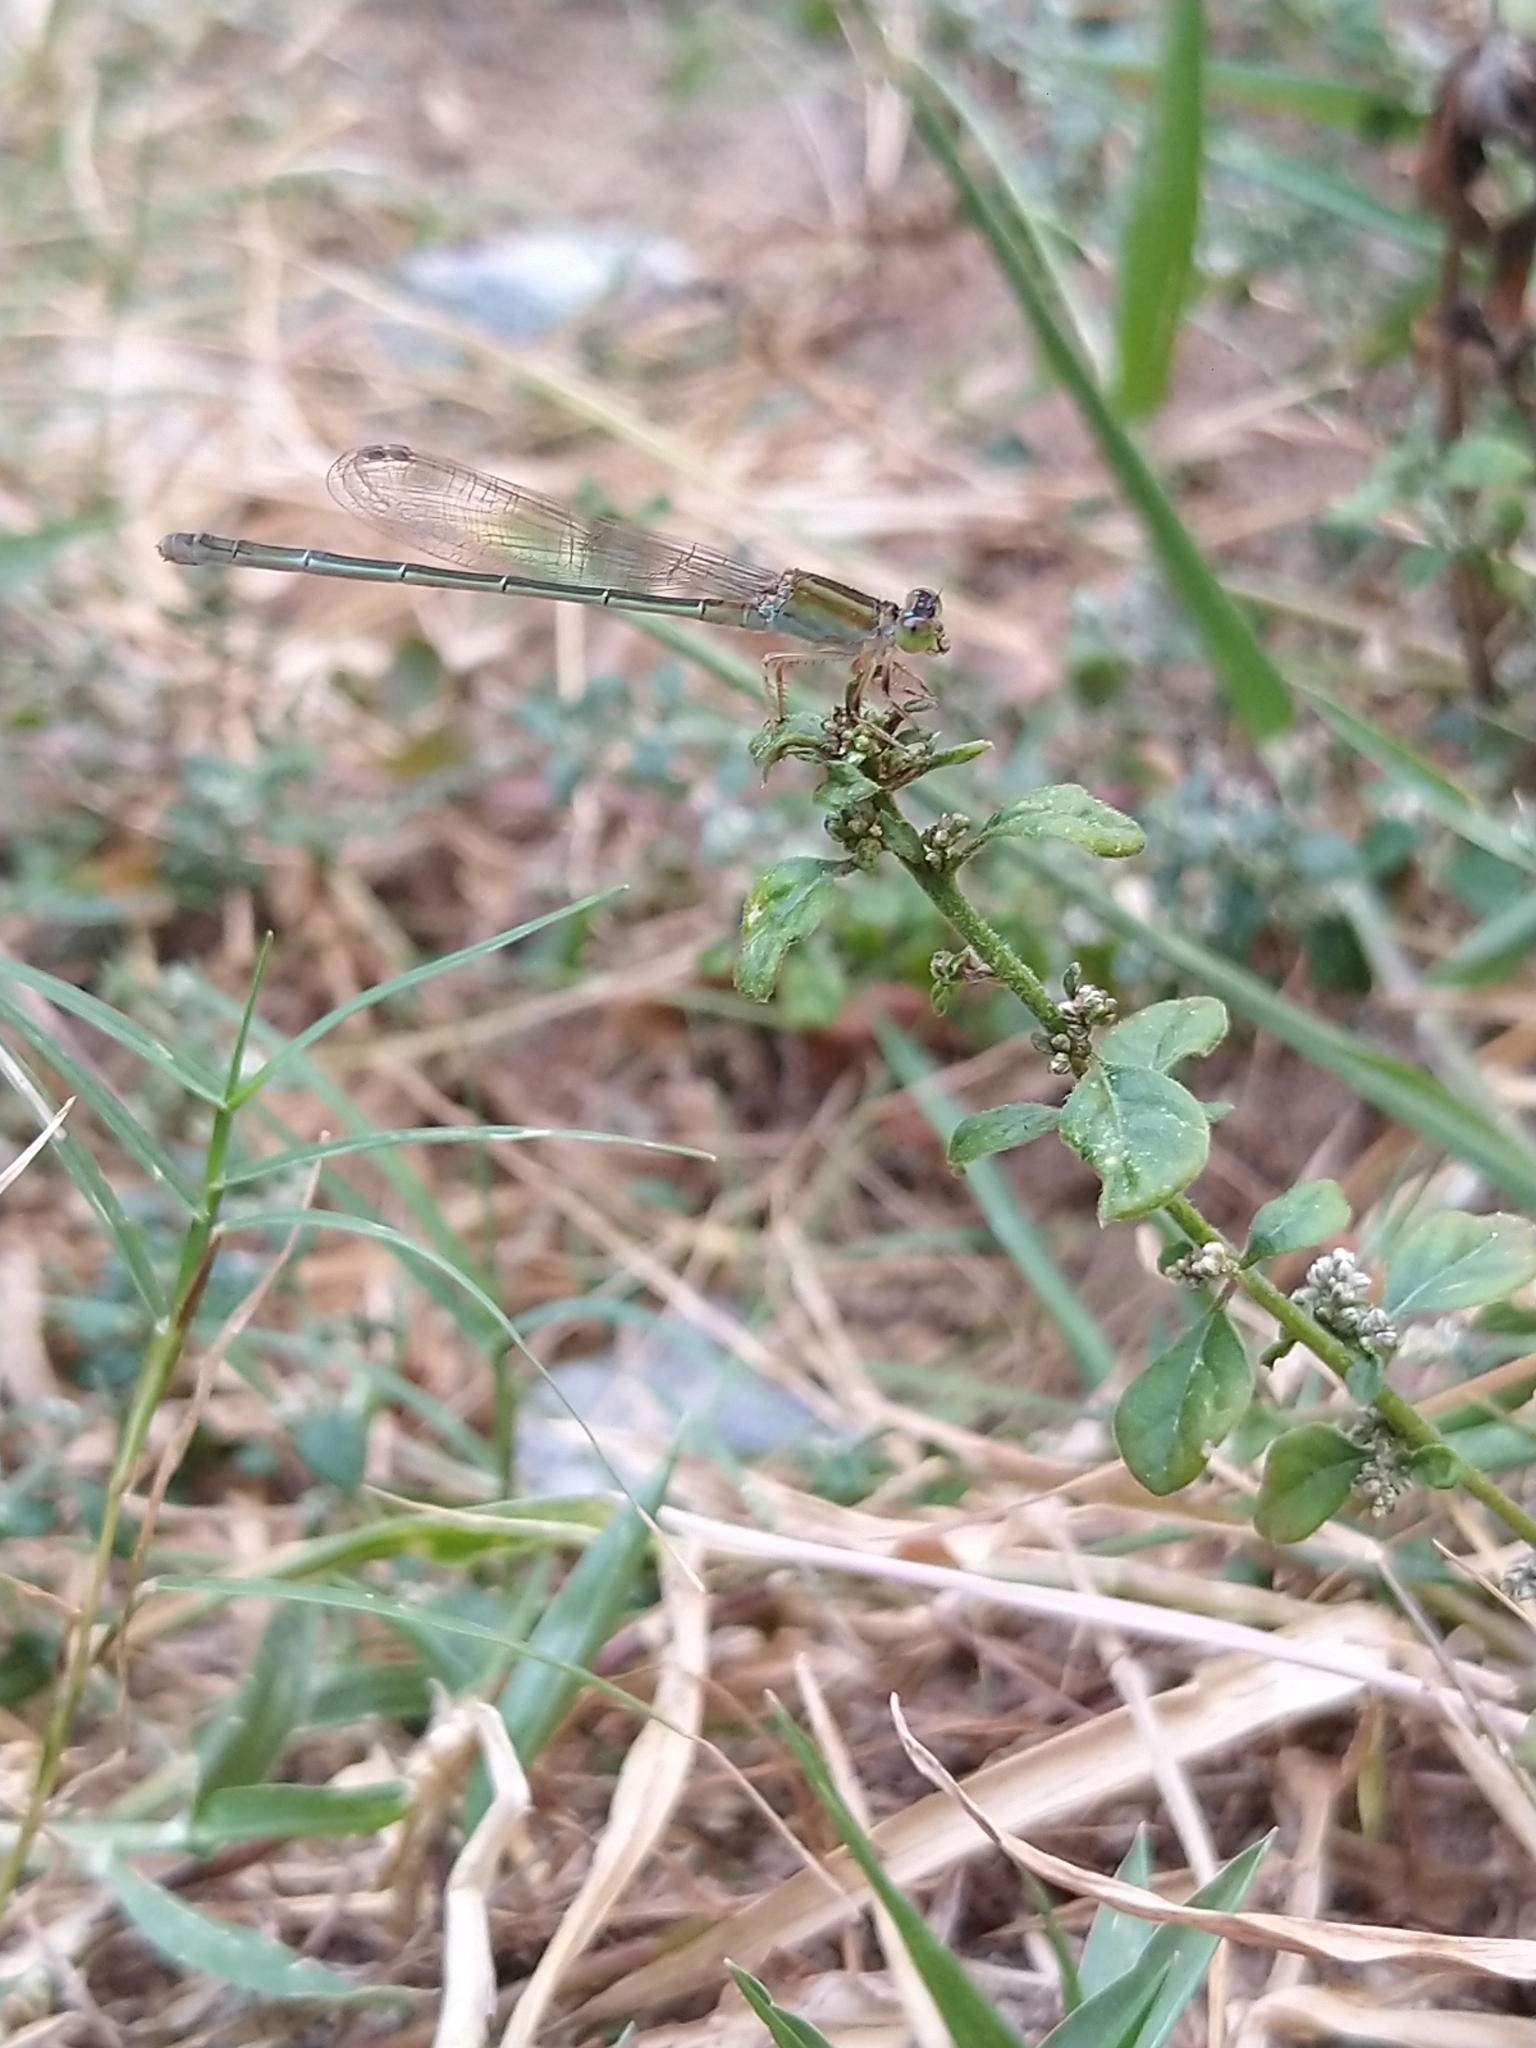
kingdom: Animalia
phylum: Arthropoda
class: Insecta
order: Odonata
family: Coenagrionidae
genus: Ischnura
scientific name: Ischnura senegalensis
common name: Tropical bluetail
